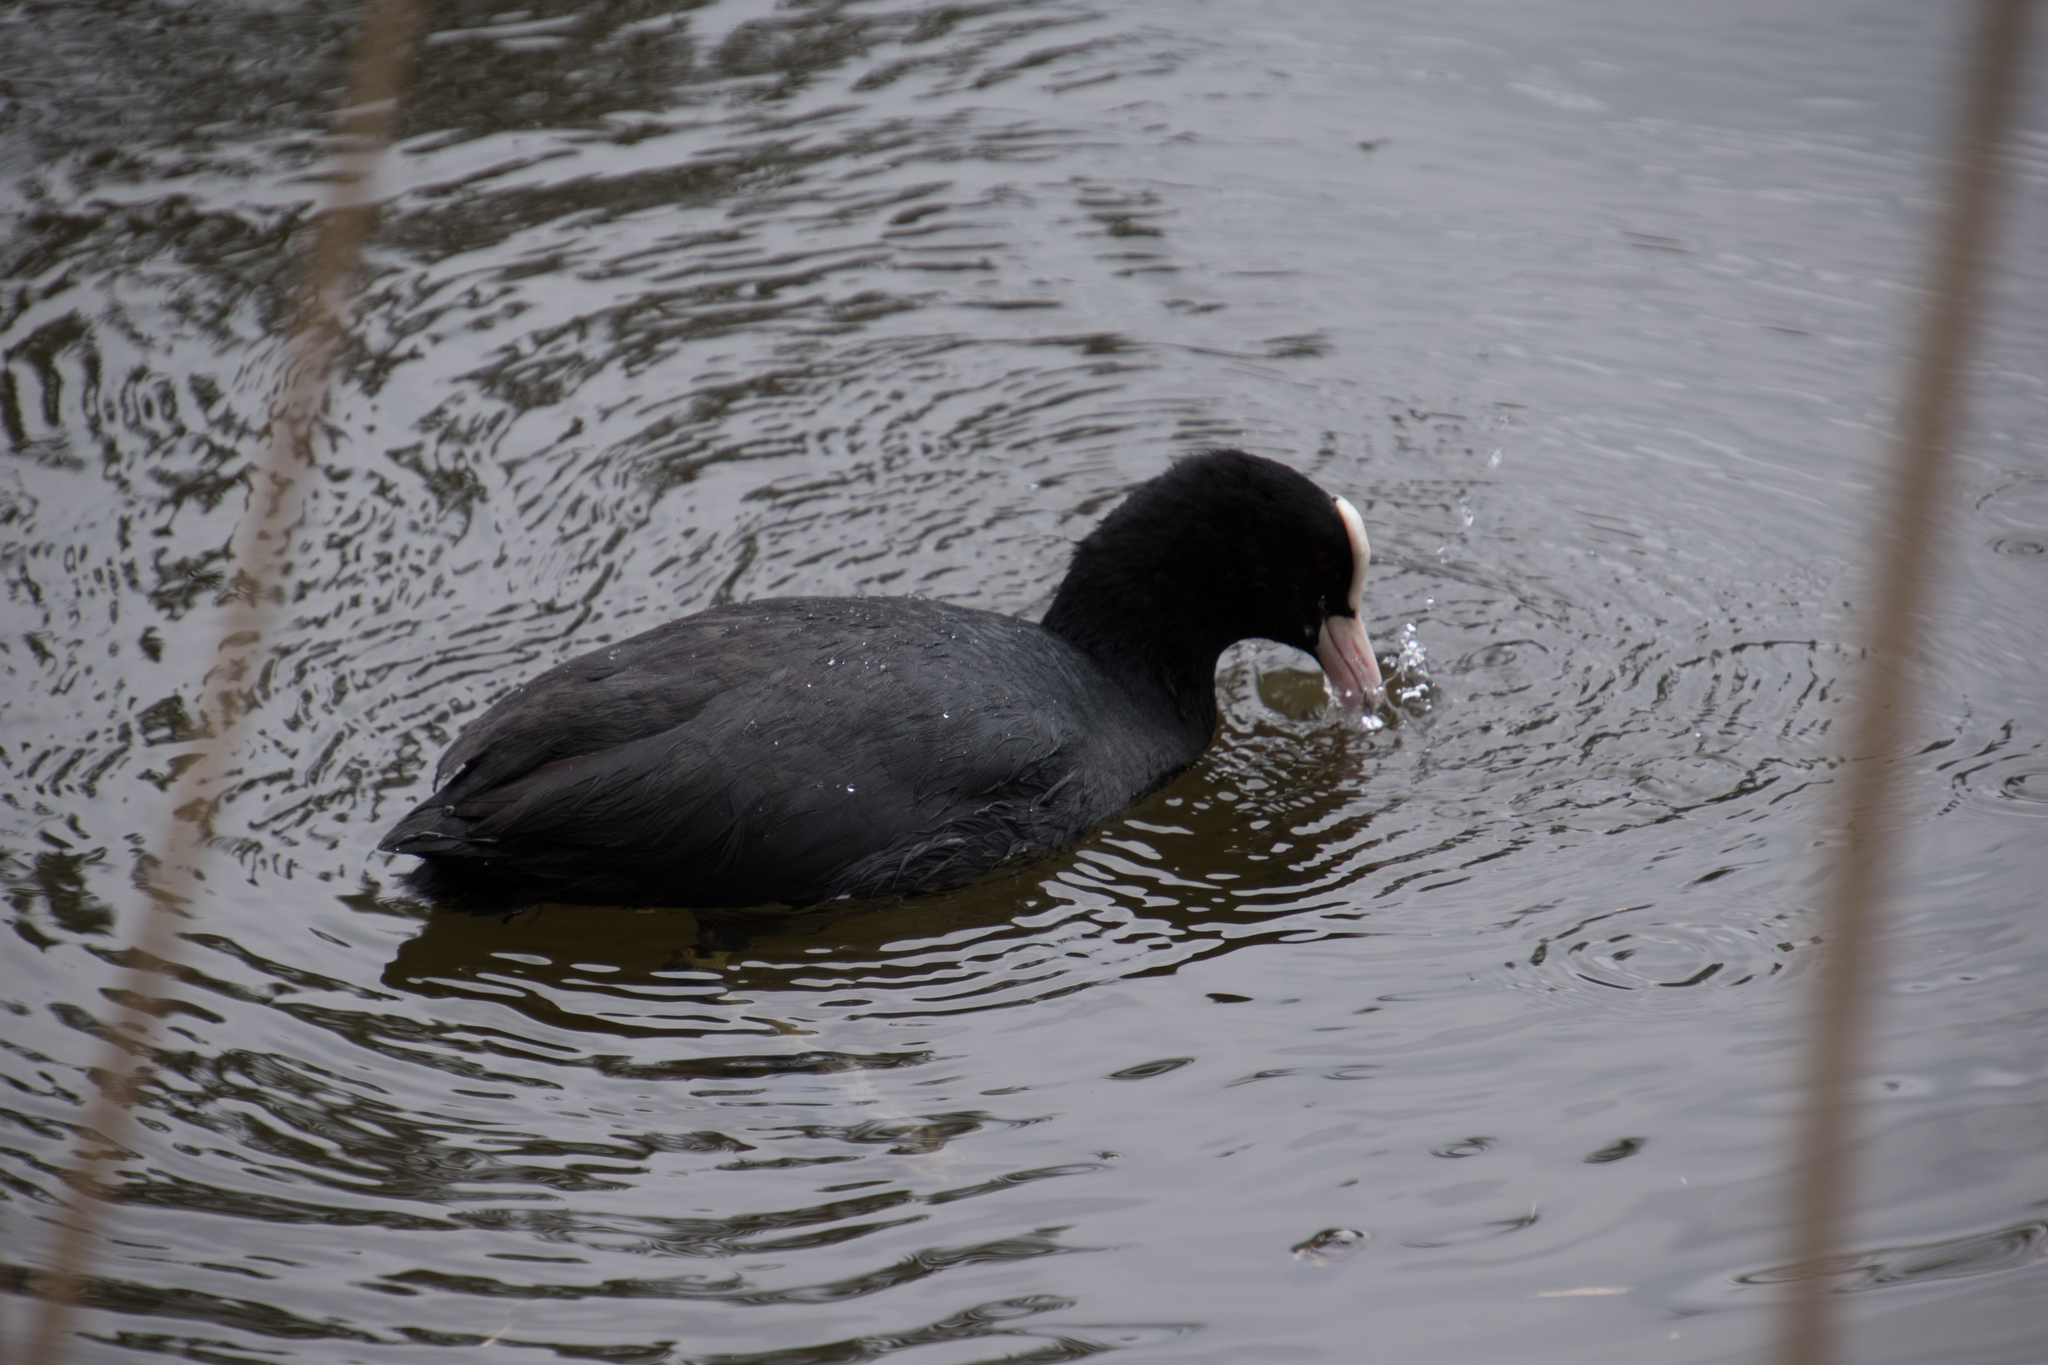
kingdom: Animalia
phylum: Chordata
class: Aves
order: Gruiformes
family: Rallidae
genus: Fulica
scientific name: Fulica atra
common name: Eurasian coot
